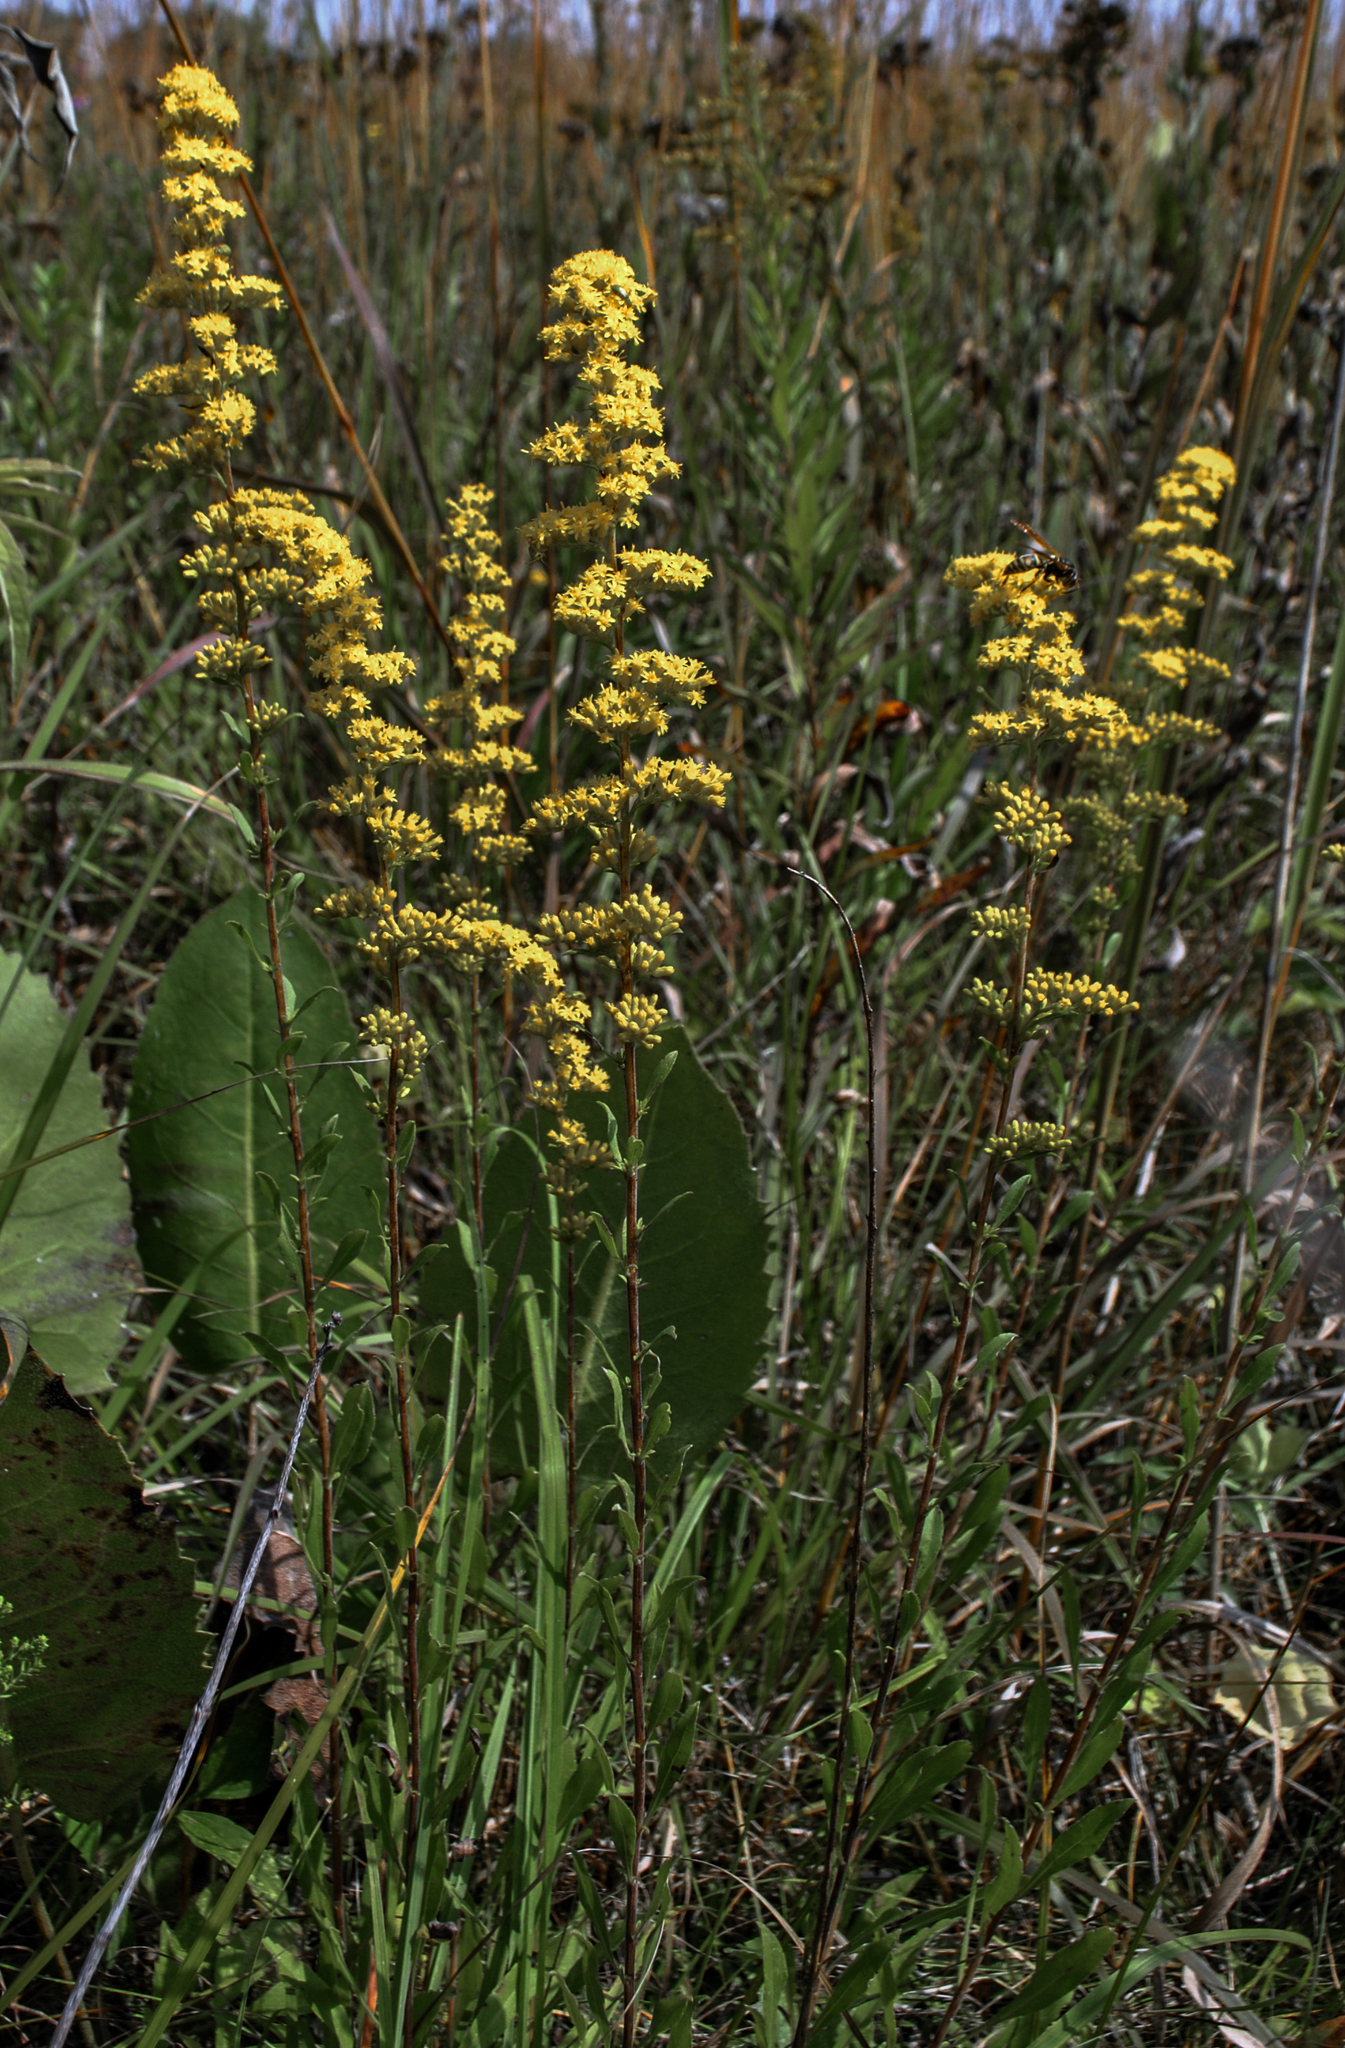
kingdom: Plantae
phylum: Tracheophyta
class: Magnoliopsida
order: Asterales
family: Asteraceae
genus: Solidago
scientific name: Solidago nemoralis
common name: Grey goldenrod
